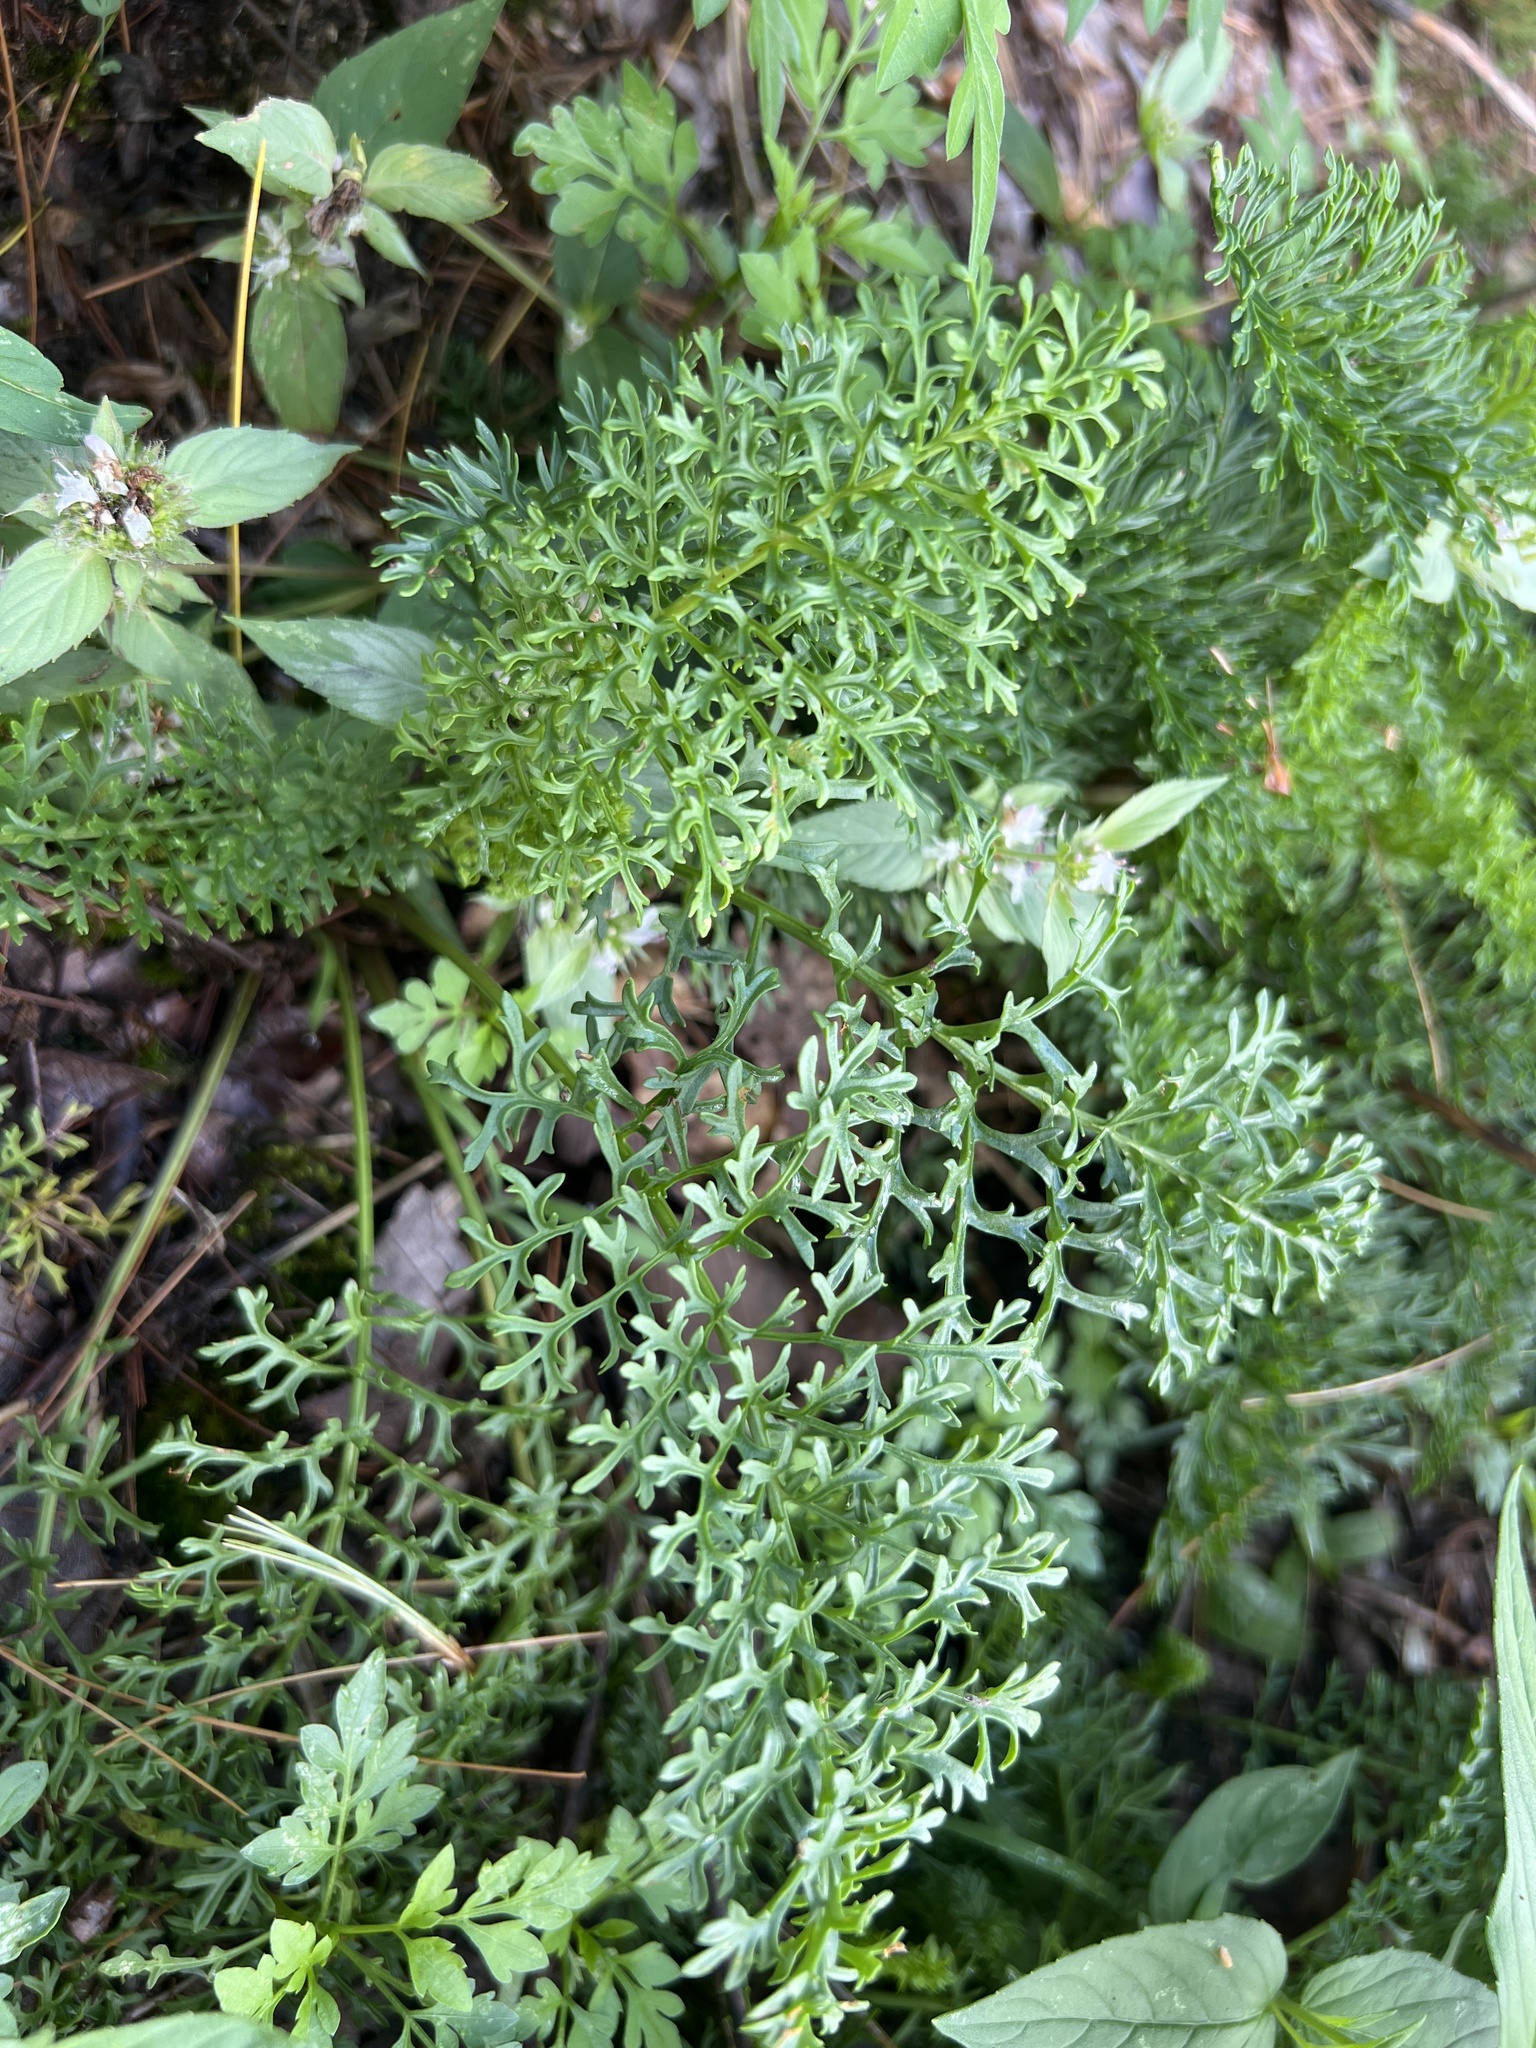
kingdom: Plantae
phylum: Tracheophyta
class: Magnoliopsida
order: Asterales
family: Asteraceae
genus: Packera
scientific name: Packera millefolia
